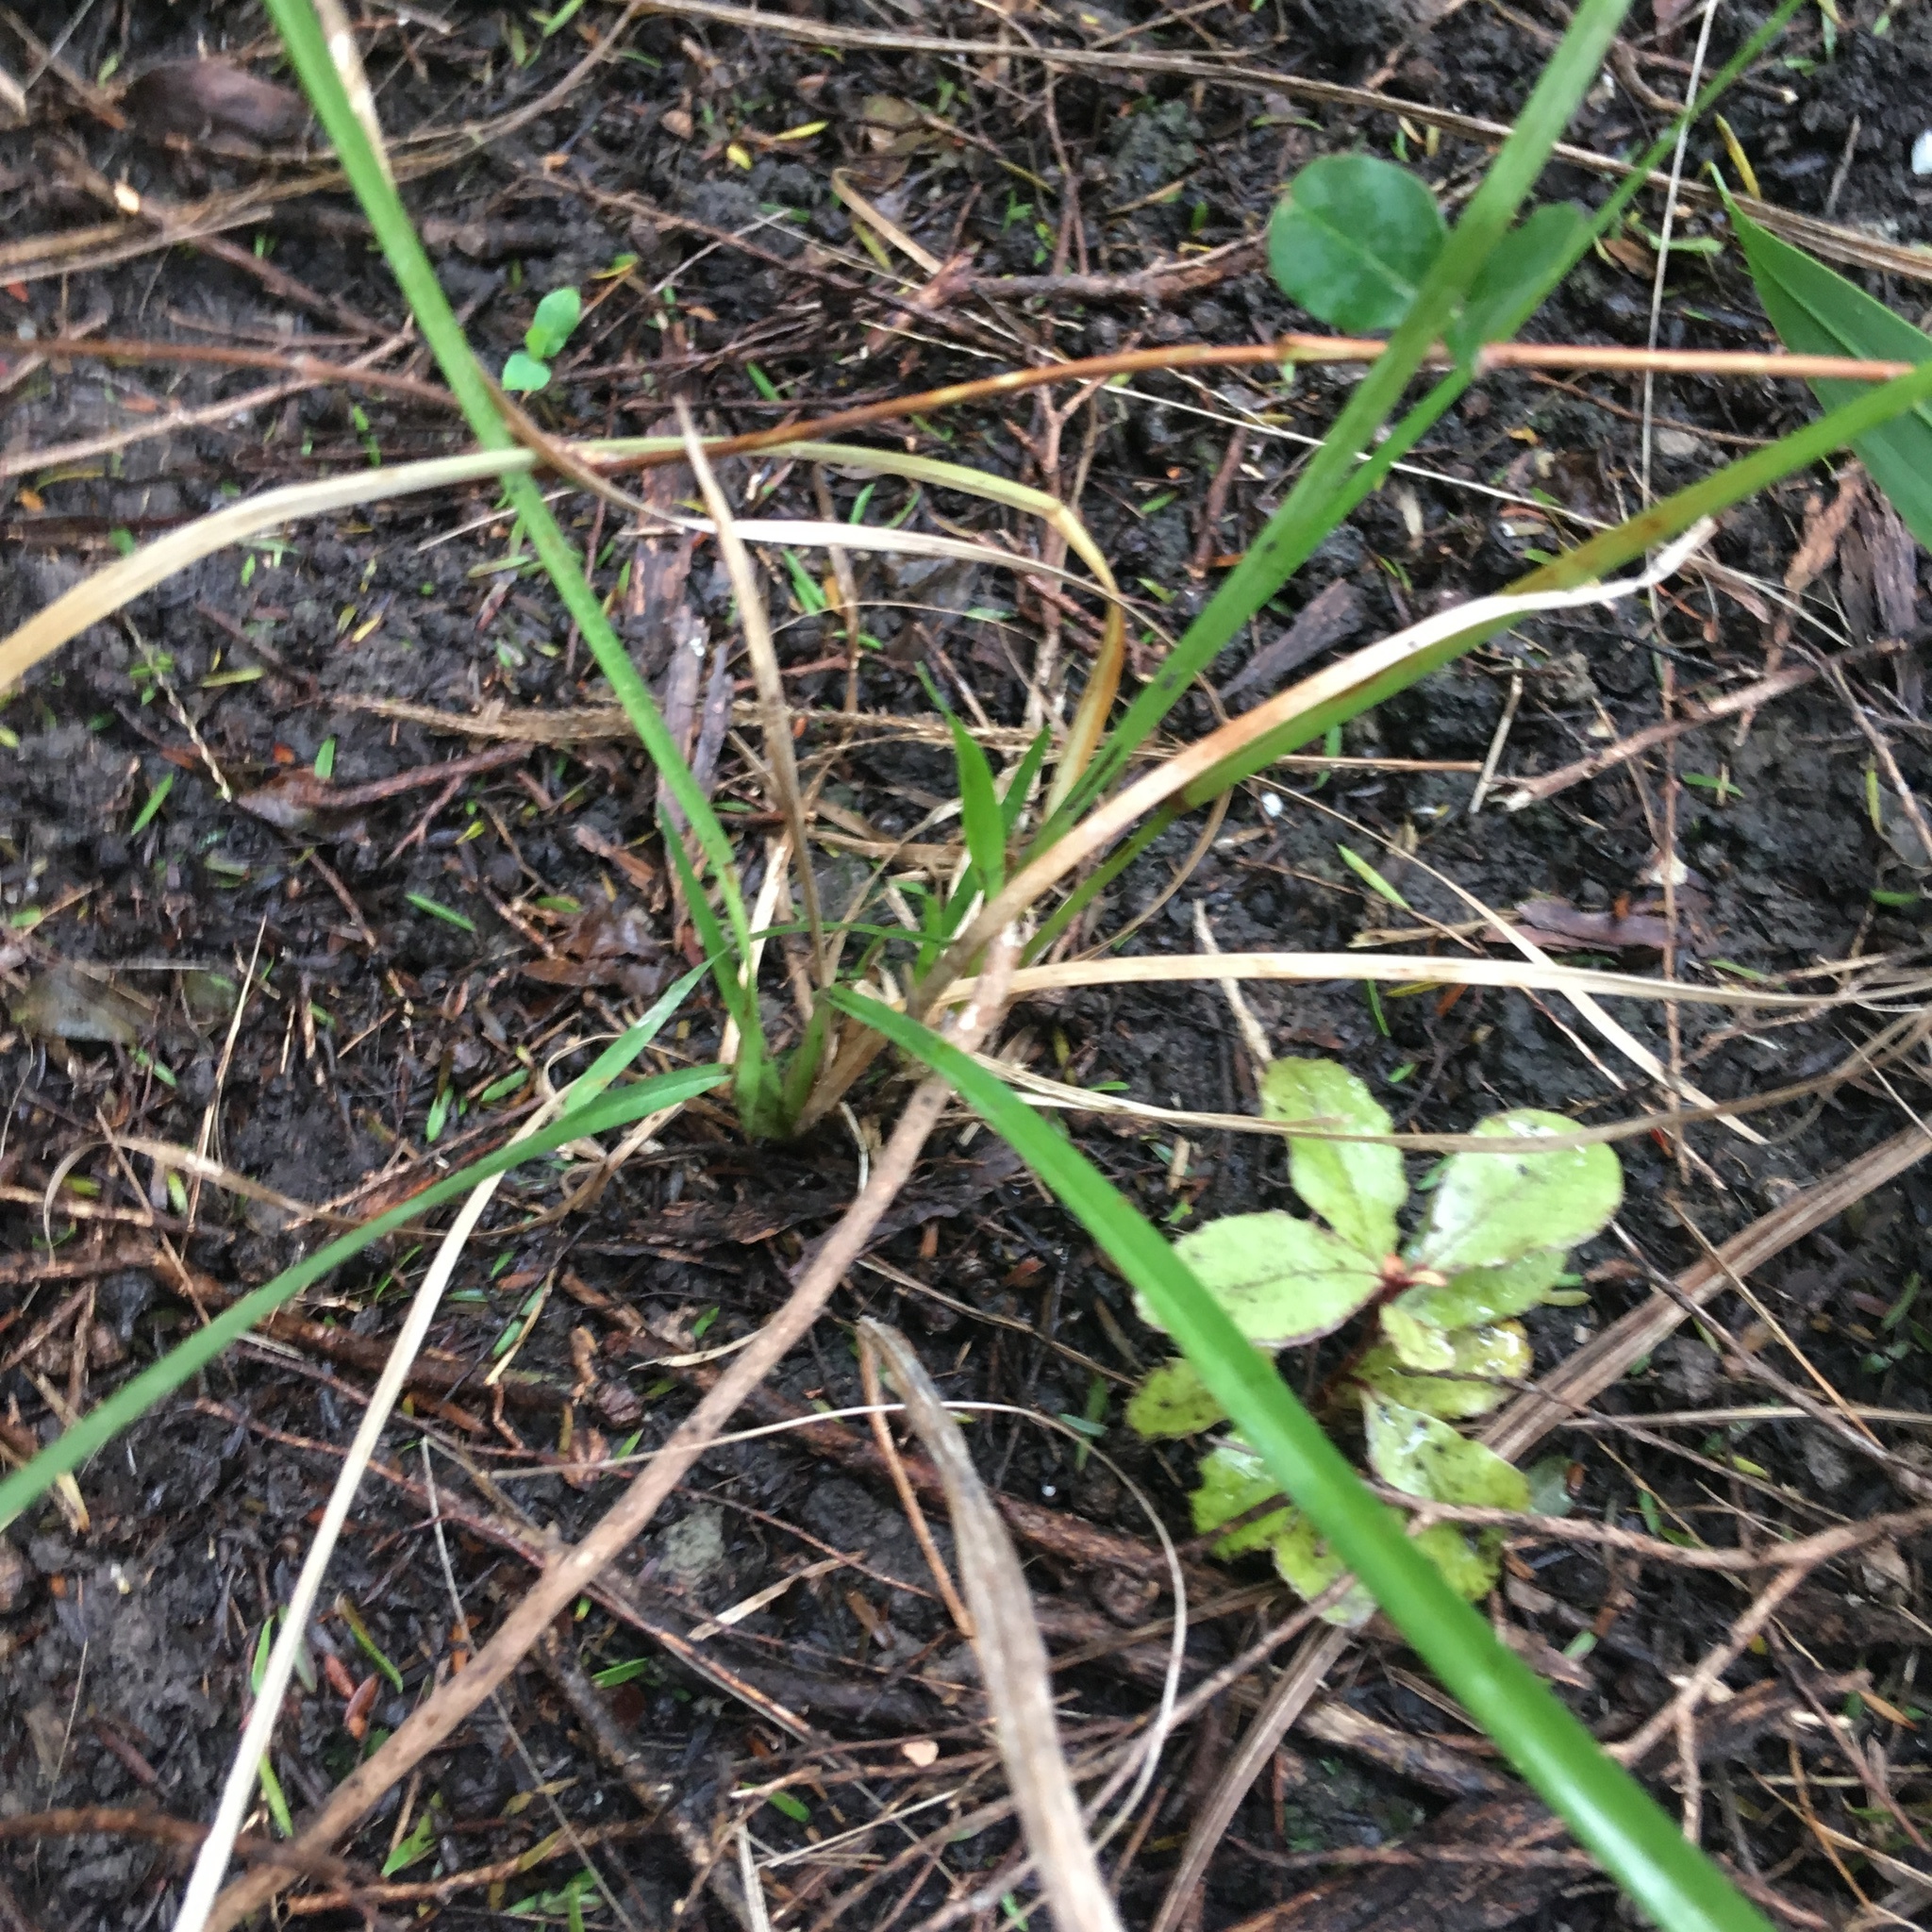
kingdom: Plantae
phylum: Tracheophyta
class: Magnoliopsida
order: Ericales
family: Primulaceae
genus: Myrsine
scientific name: Myrsine australis
